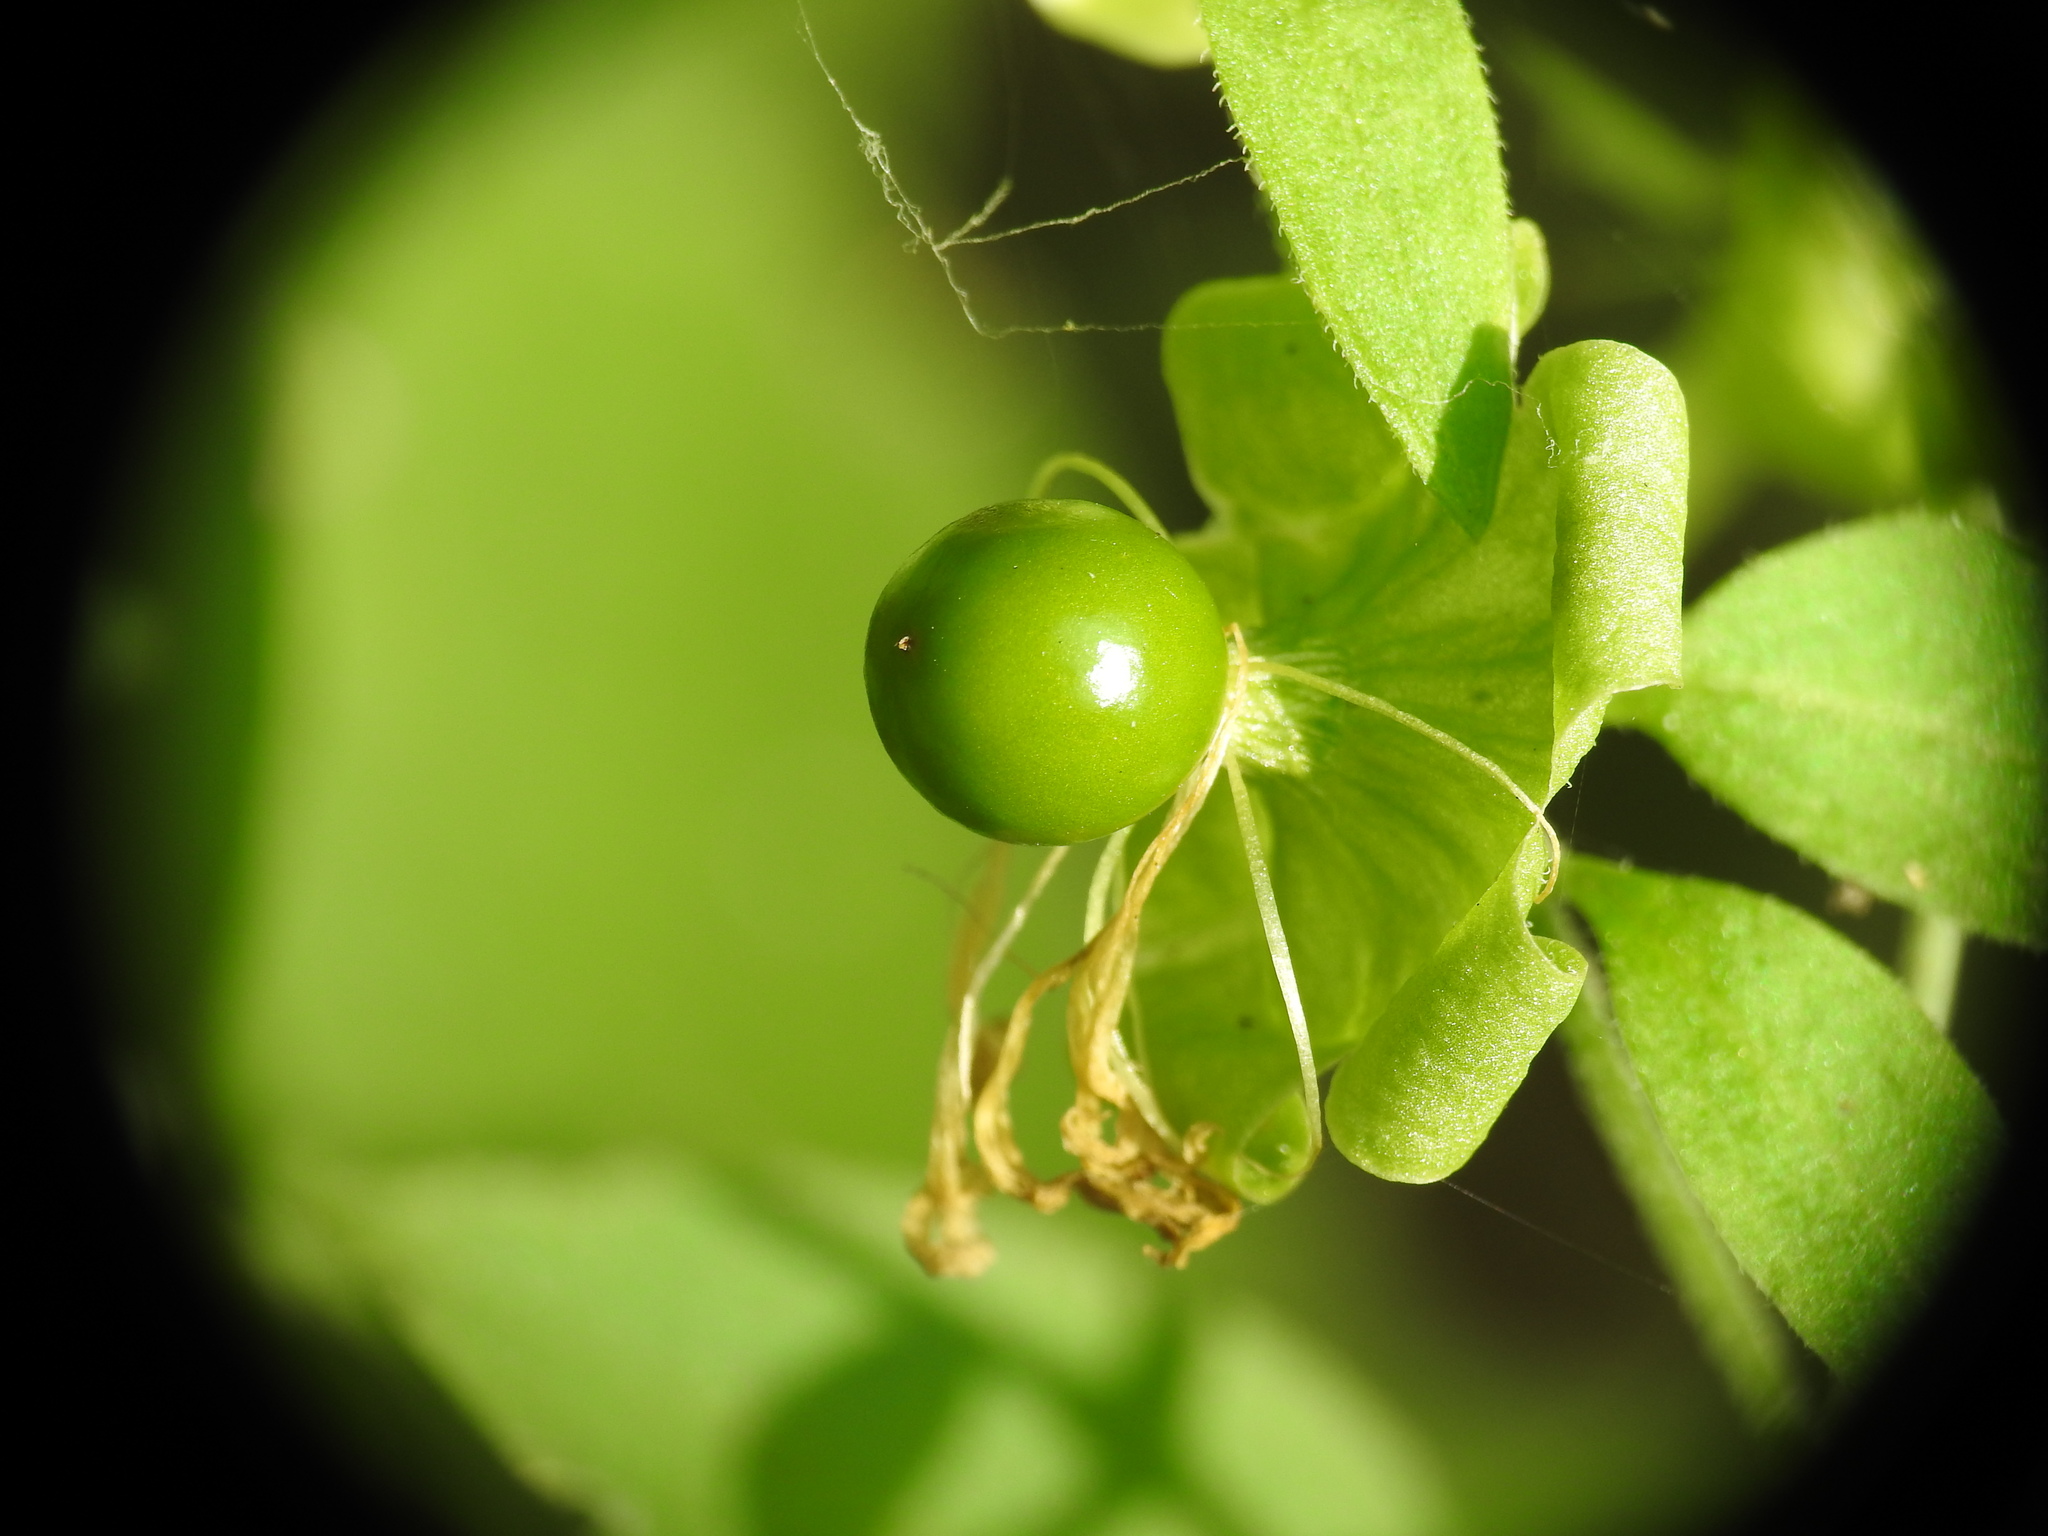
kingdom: Plantae
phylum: Tracheophyta
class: Magnoliopsida
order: Caryophyllales
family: Caryophyllaceae
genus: Silene
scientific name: Silene baccifera
